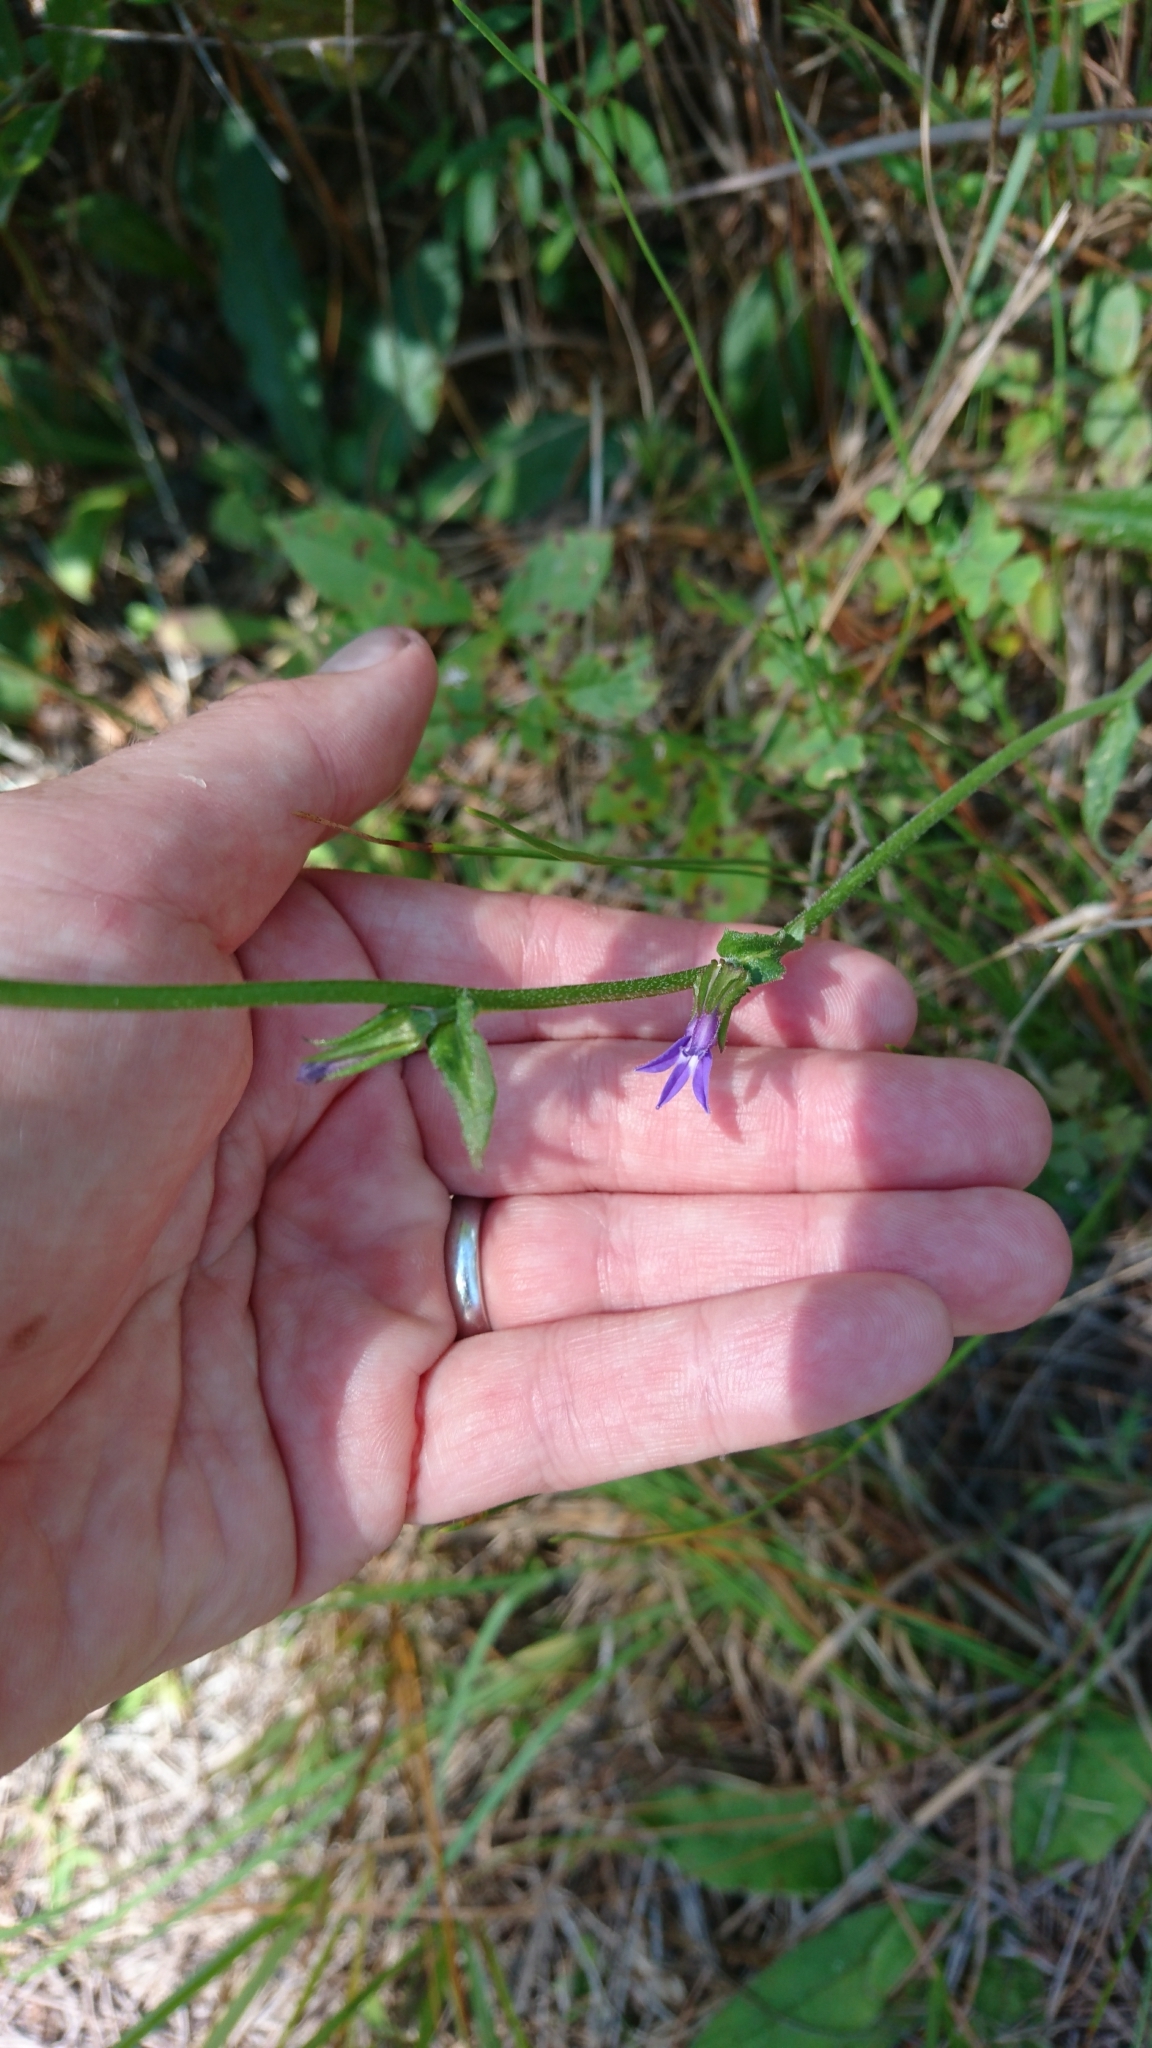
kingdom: Plantae
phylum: Tracheophyta
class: Magnoliopsida
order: Asterales
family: Campanulaceae
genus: Lobelia
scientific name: Lobelia puberula
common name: Purple dewdrop
